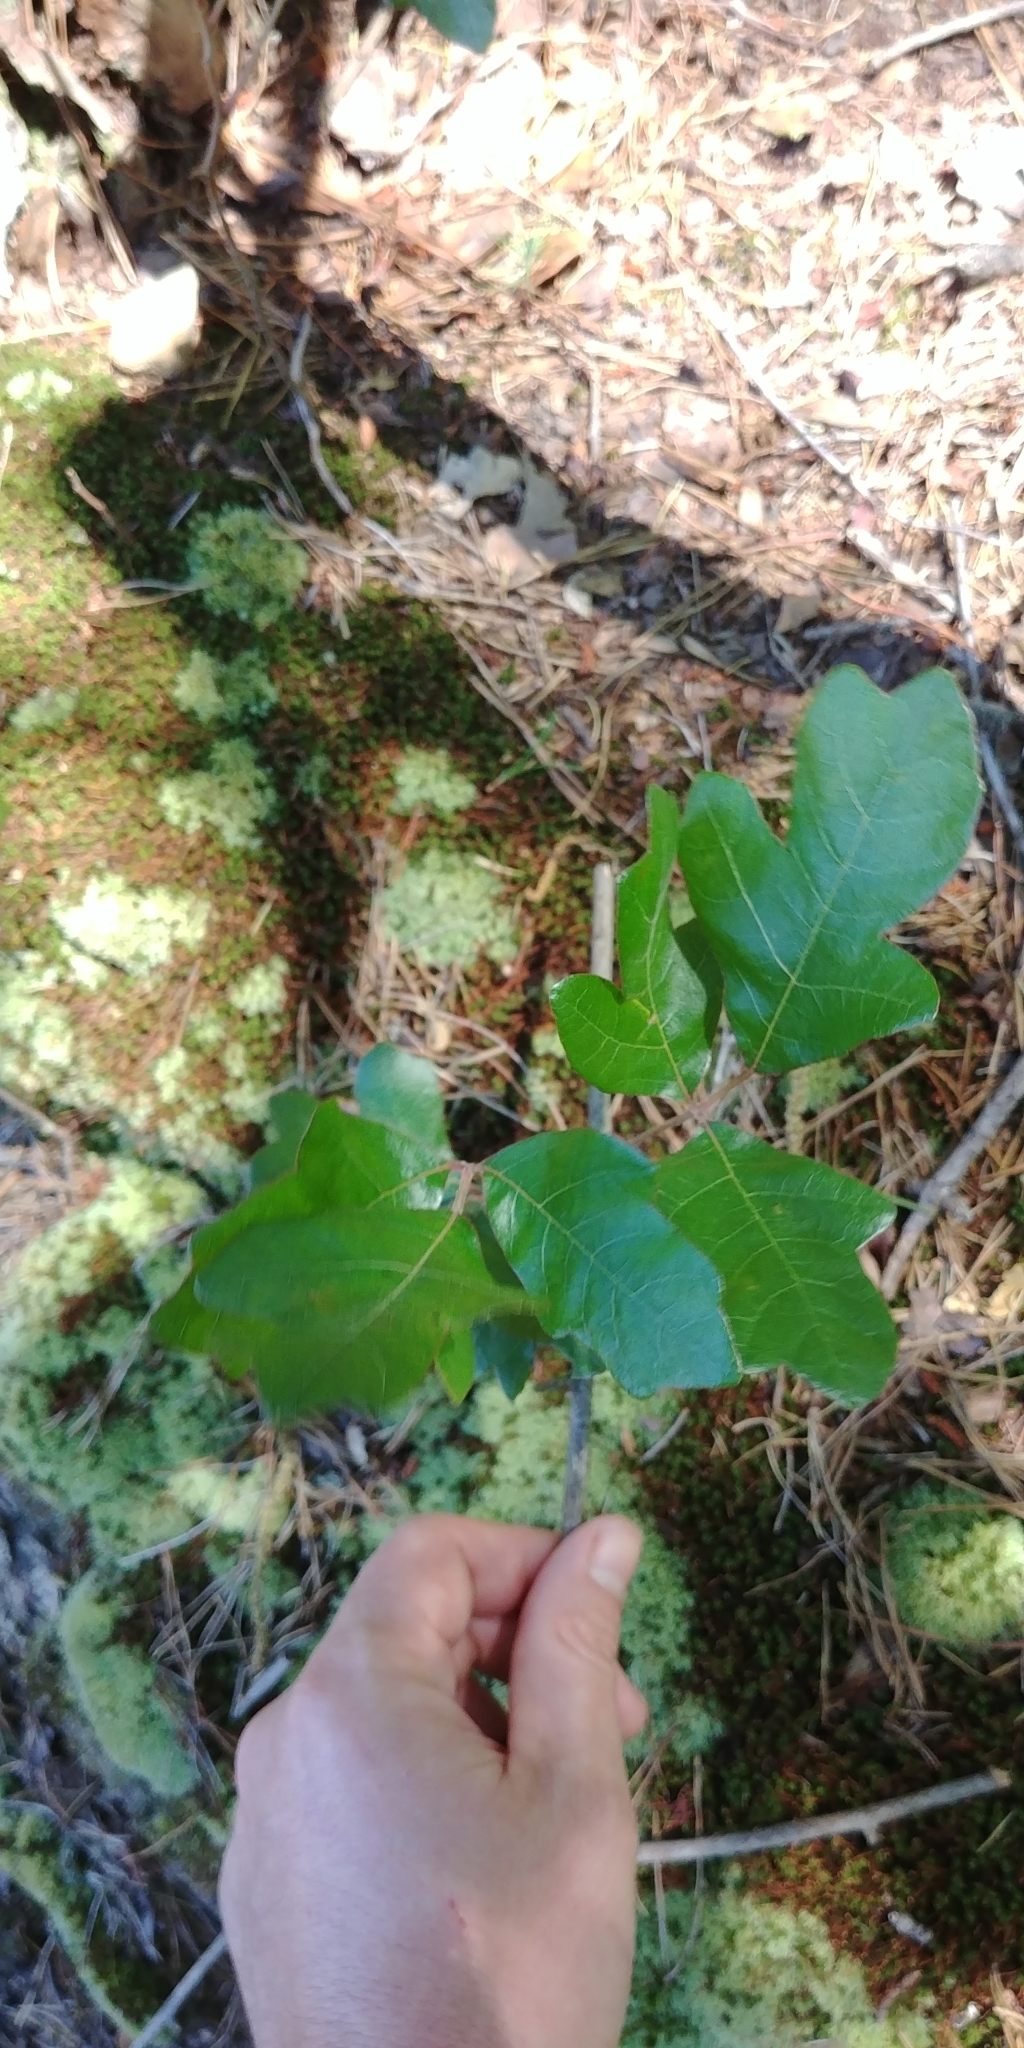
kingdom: Plantae
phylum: Tracheophyta
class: Magnoliopsida
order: Sapindales
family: Anacardiaceae
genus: Toxicodendron
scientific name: Toxicodendron pubescens
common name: Eastern poison-oak
